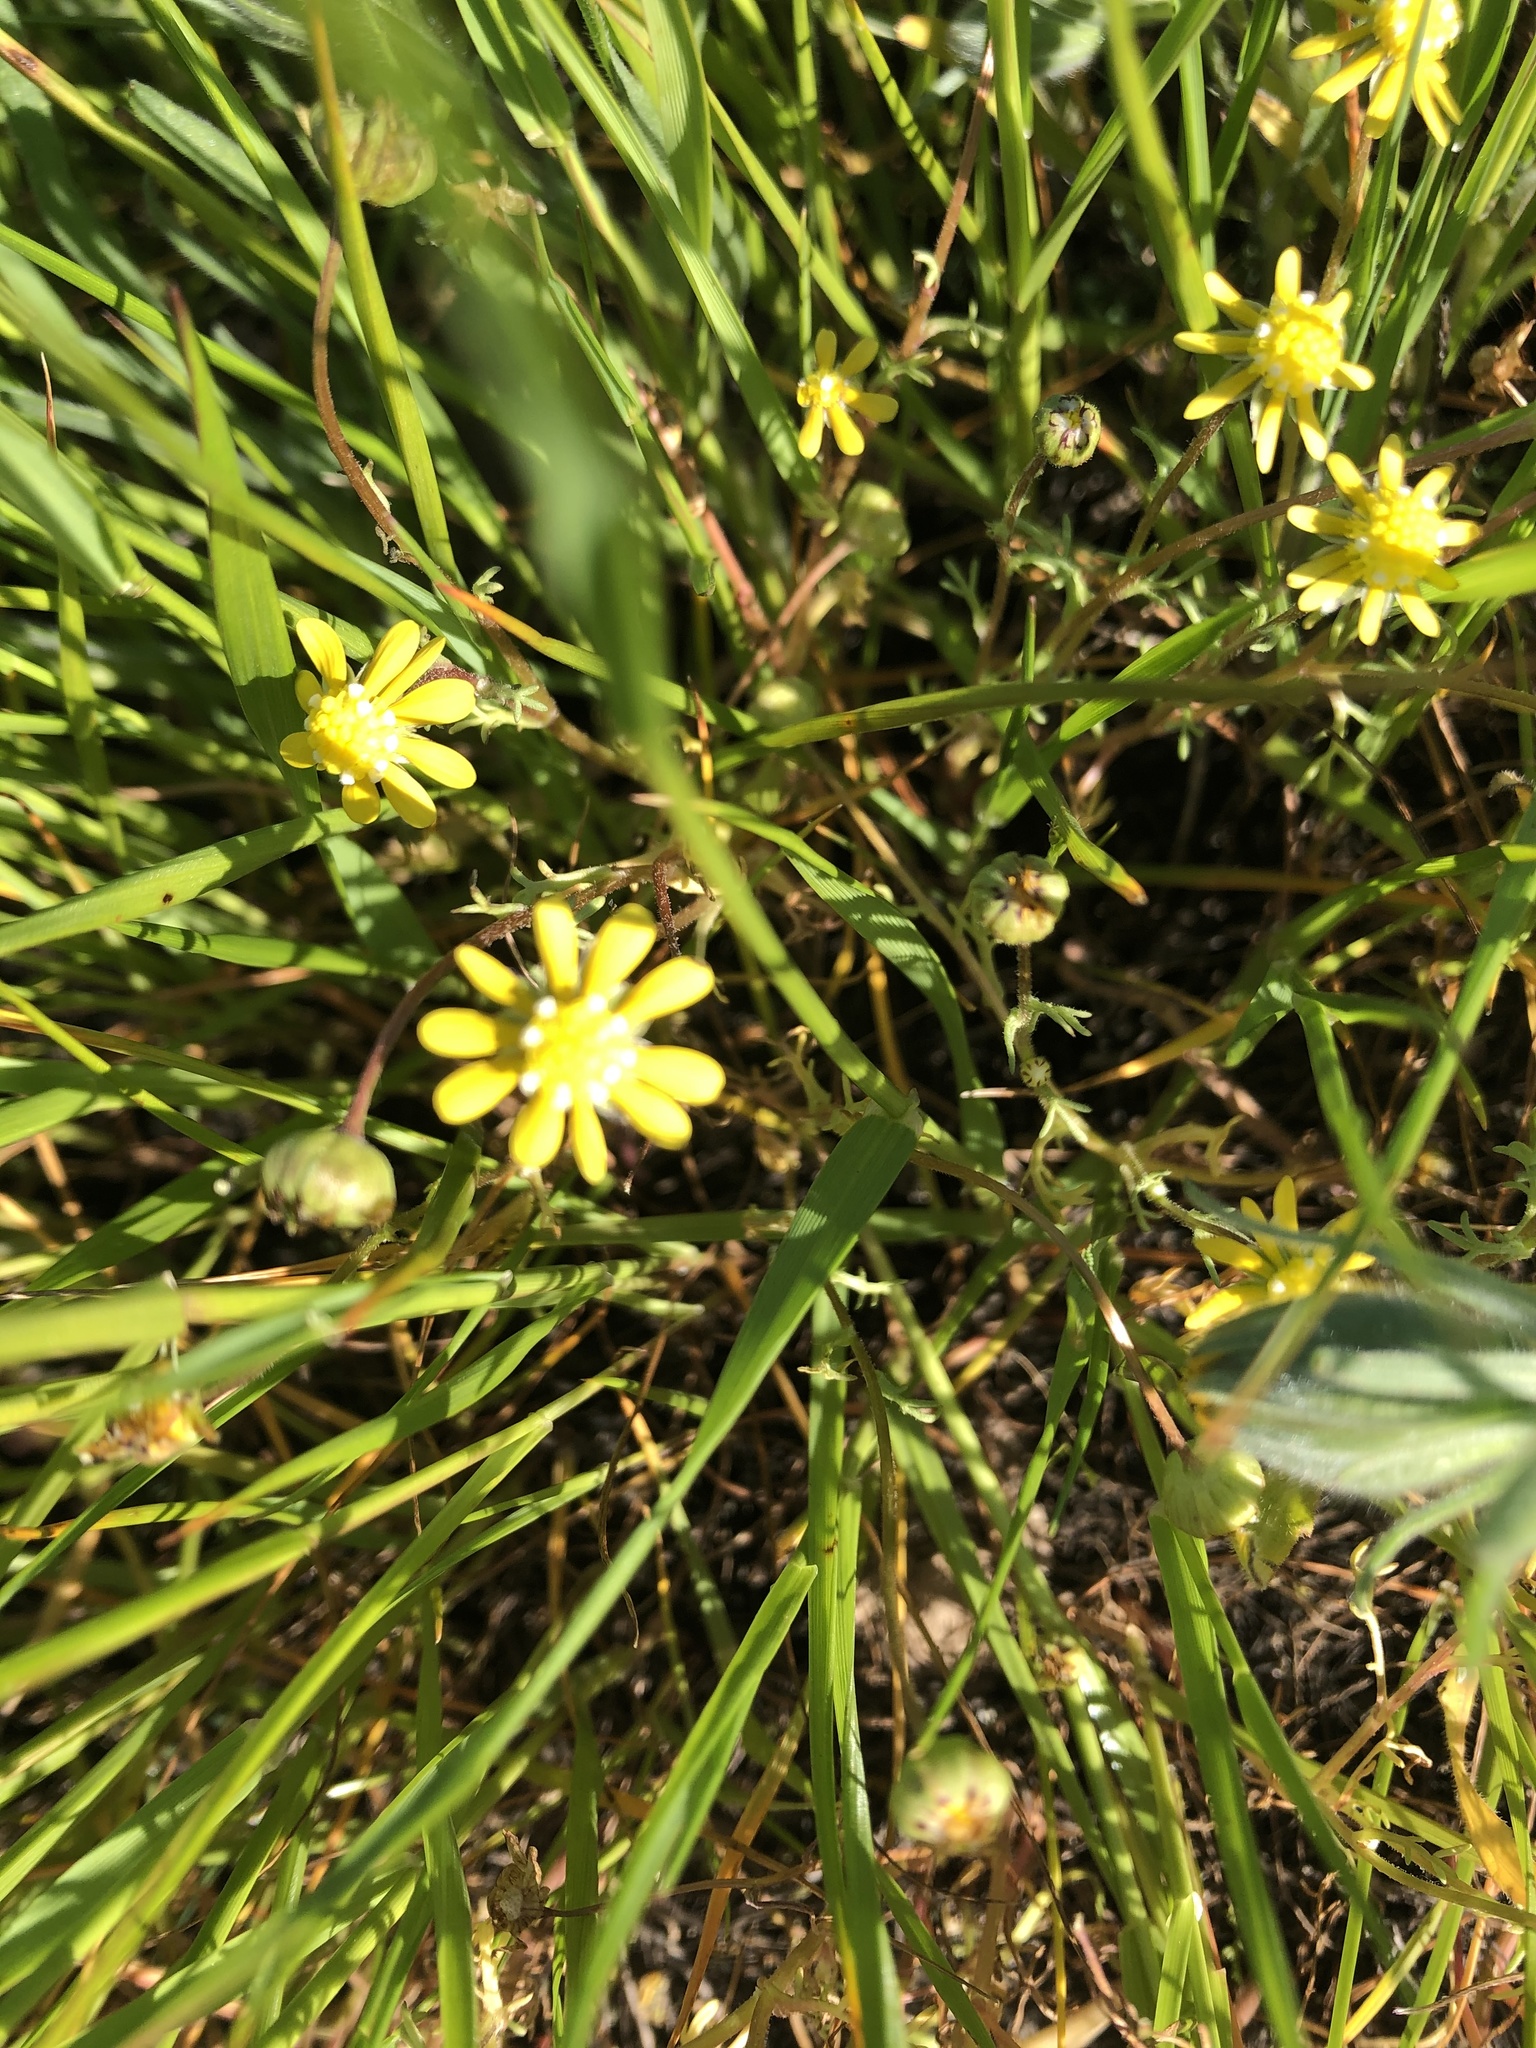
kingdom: Plantae
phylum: Tracheophyta
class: Magnoliopsida
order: Asterales
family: Asteraceae
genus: Blennosperma
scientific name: Blennosperma nanum
